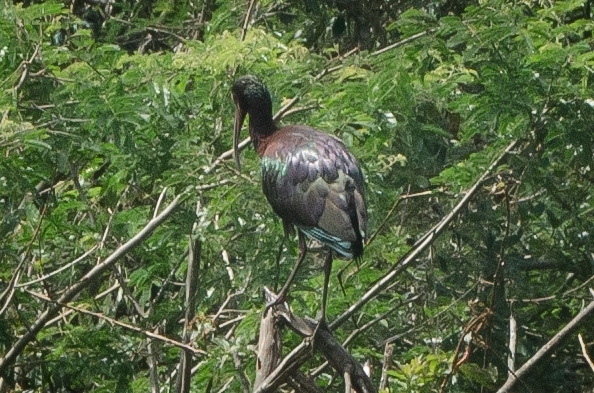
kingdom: Animalia
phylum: Chordata
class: Aves
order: Pelecaniformes
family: Threskiornithidae
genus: Plegadis
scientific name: Plegadis chihi
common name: White-faced ibis
